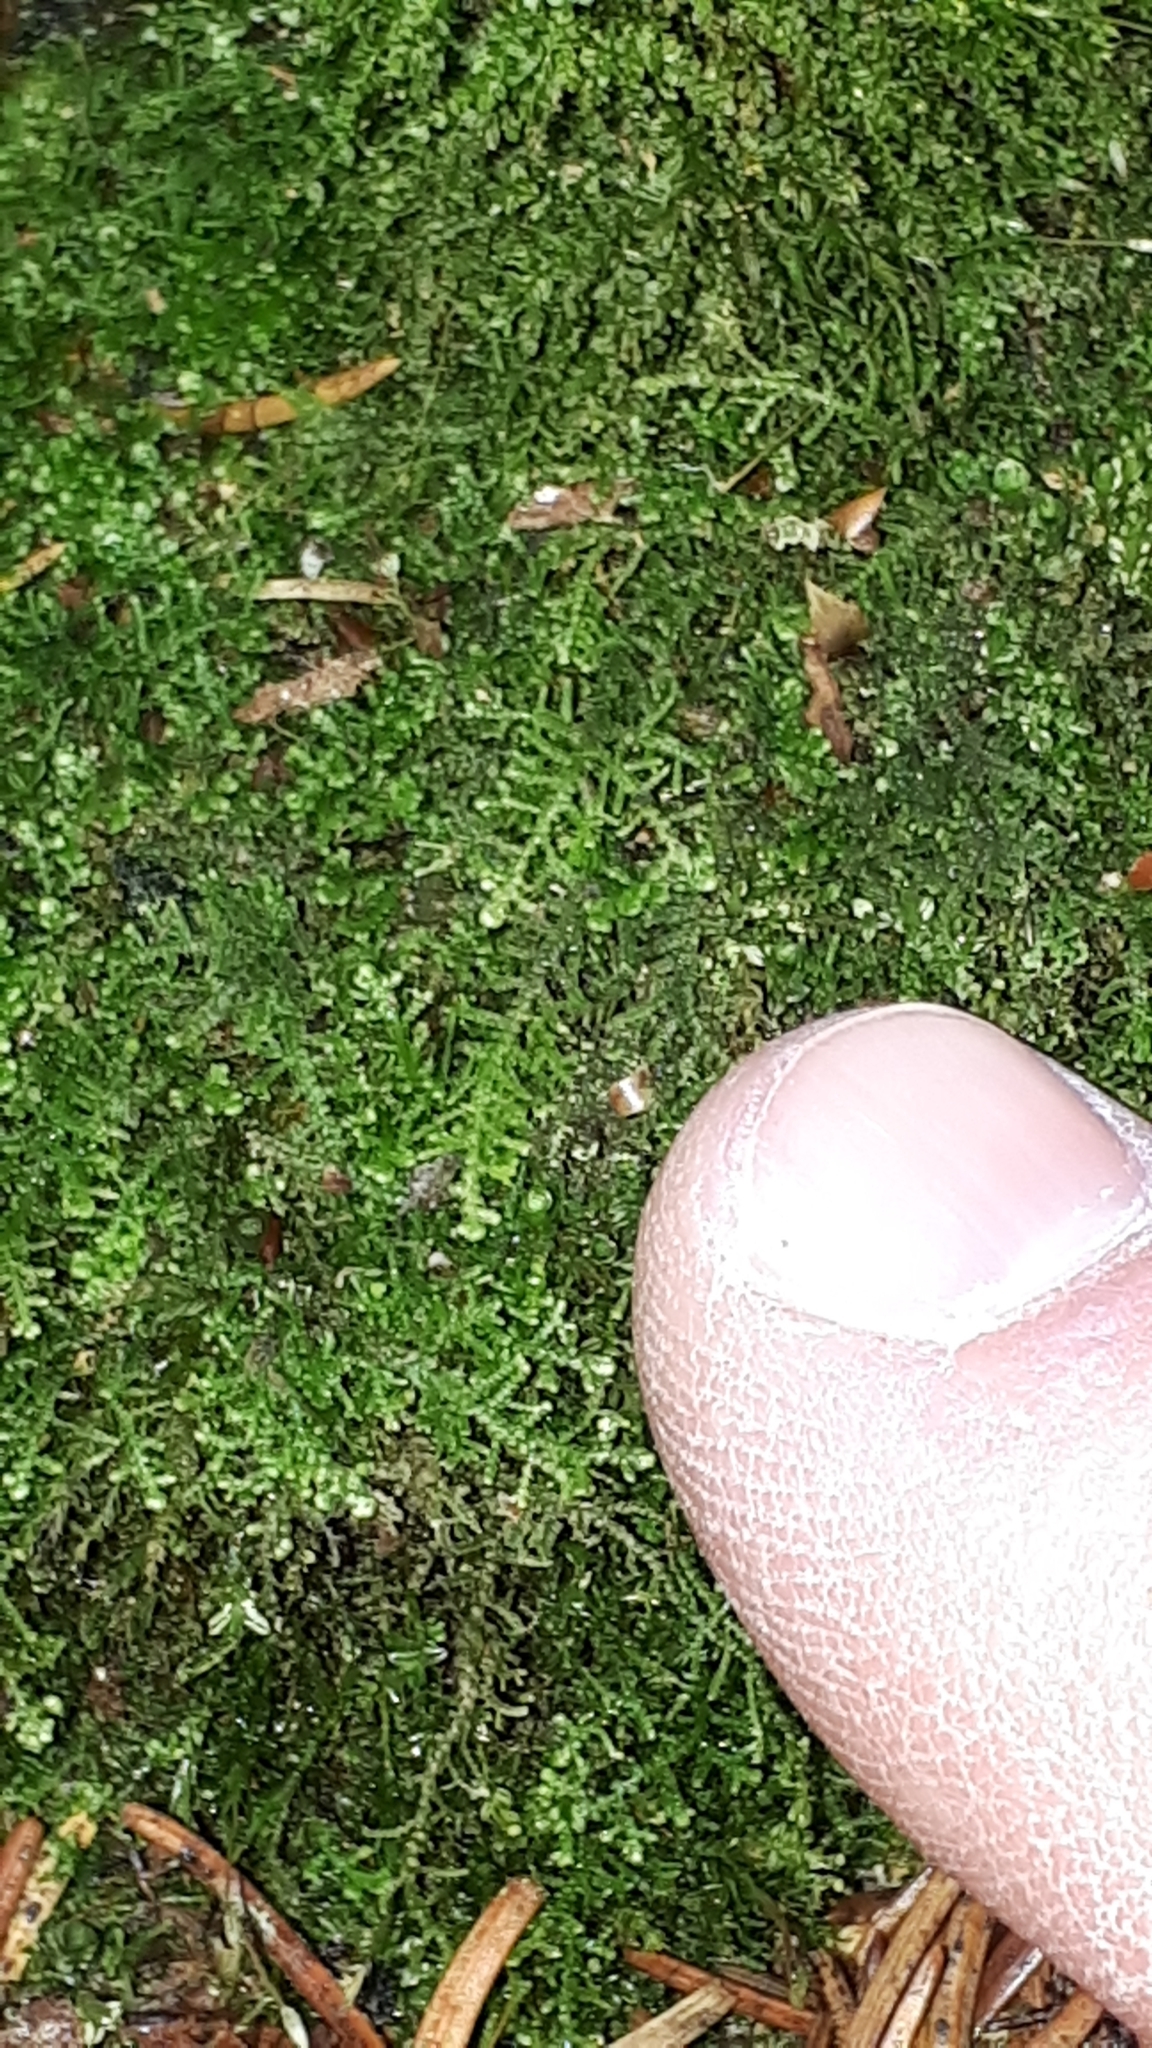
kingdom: Plantae
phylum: Marchantiophyta
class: Jungermanniopsida
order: Jungermanniales
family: Lepidoziaceae
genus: Lepidozia
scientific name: Lepidozia reptans
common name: Creeping fingerwort
